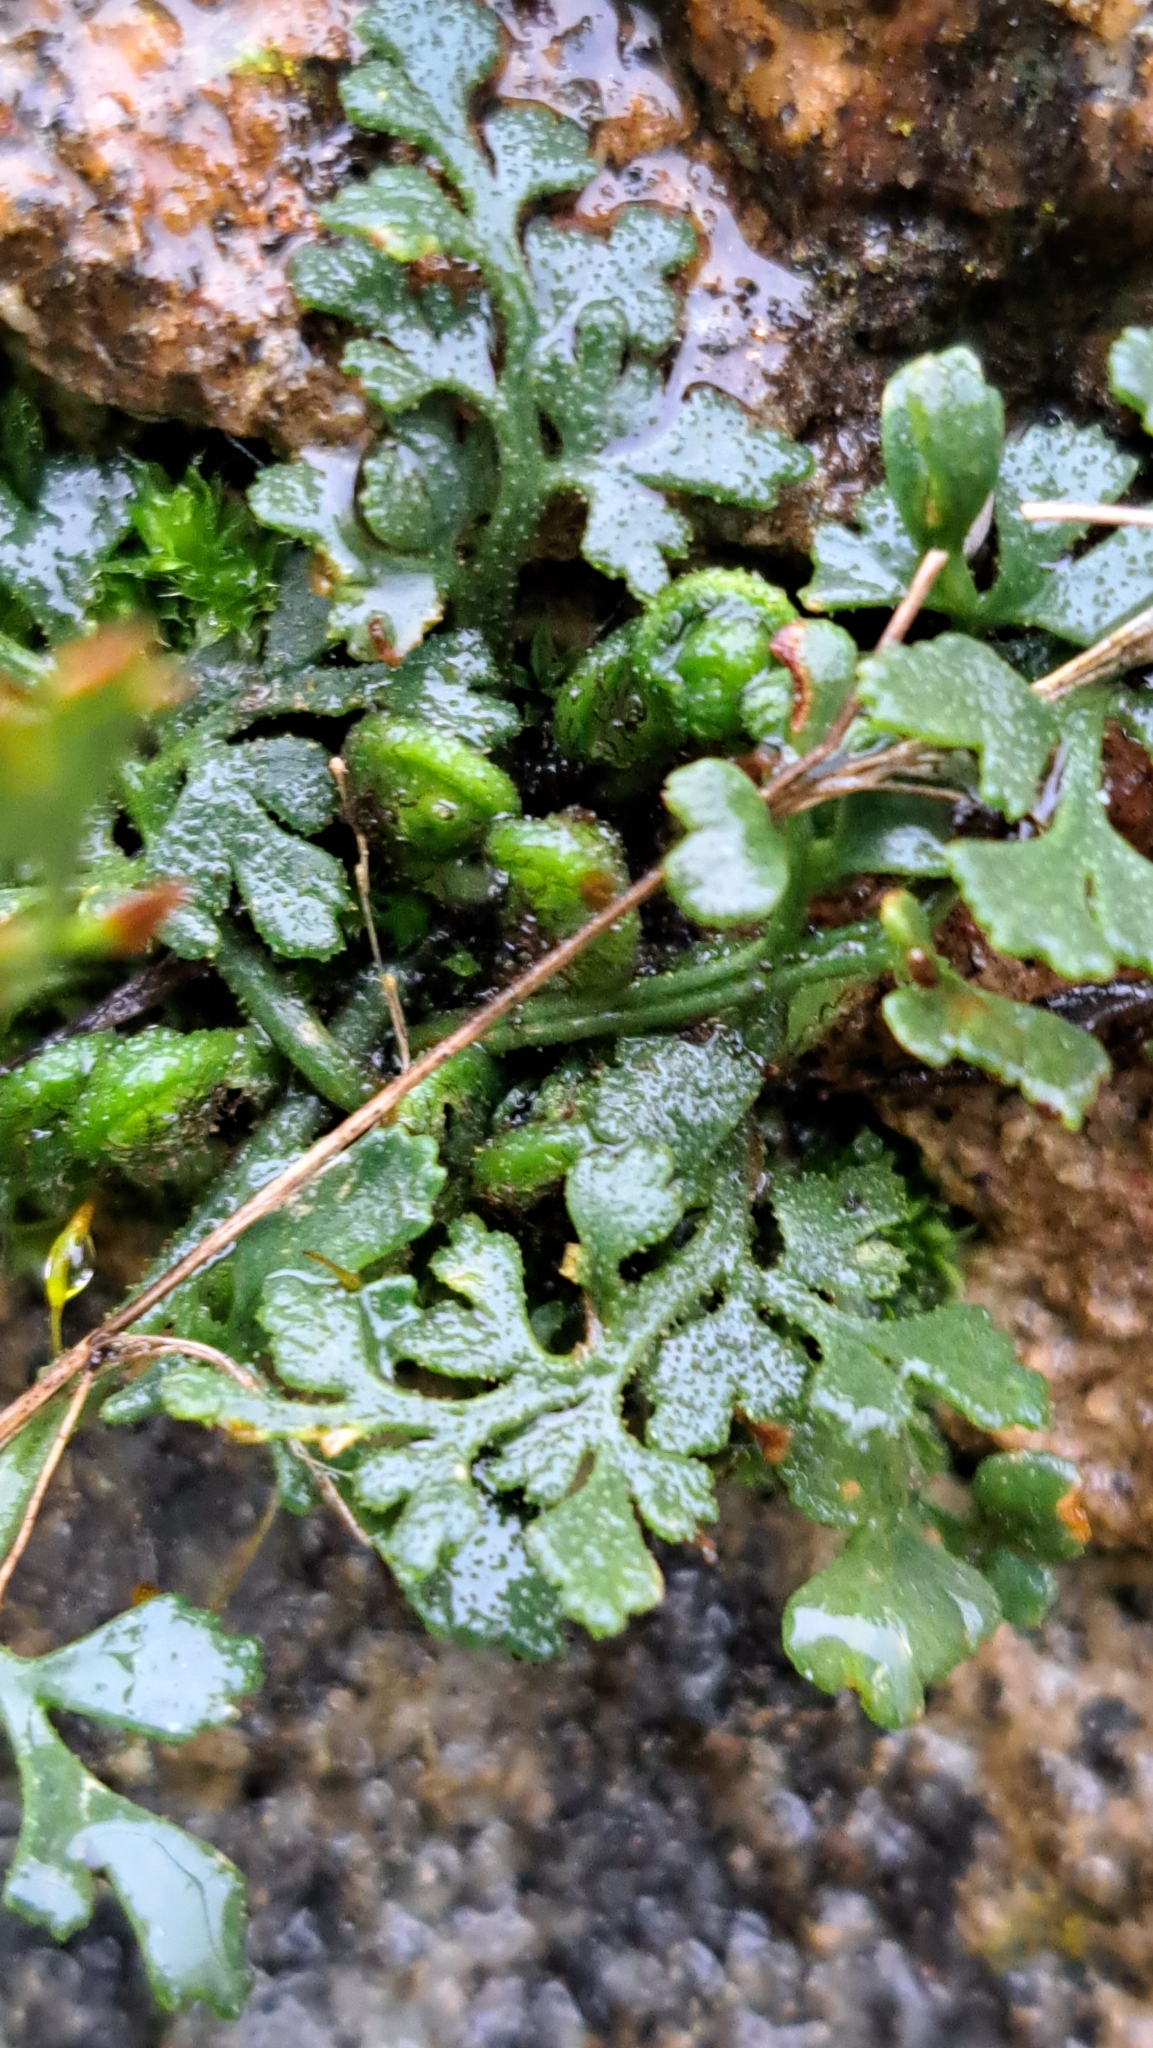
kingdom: Plantae
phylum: Tracheophyta
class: Polypodiopsida
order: Polypodiales
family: Aspleniaceae
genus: Asplenium
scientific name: Asplenium ruta-muraria
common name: Wall-rue
